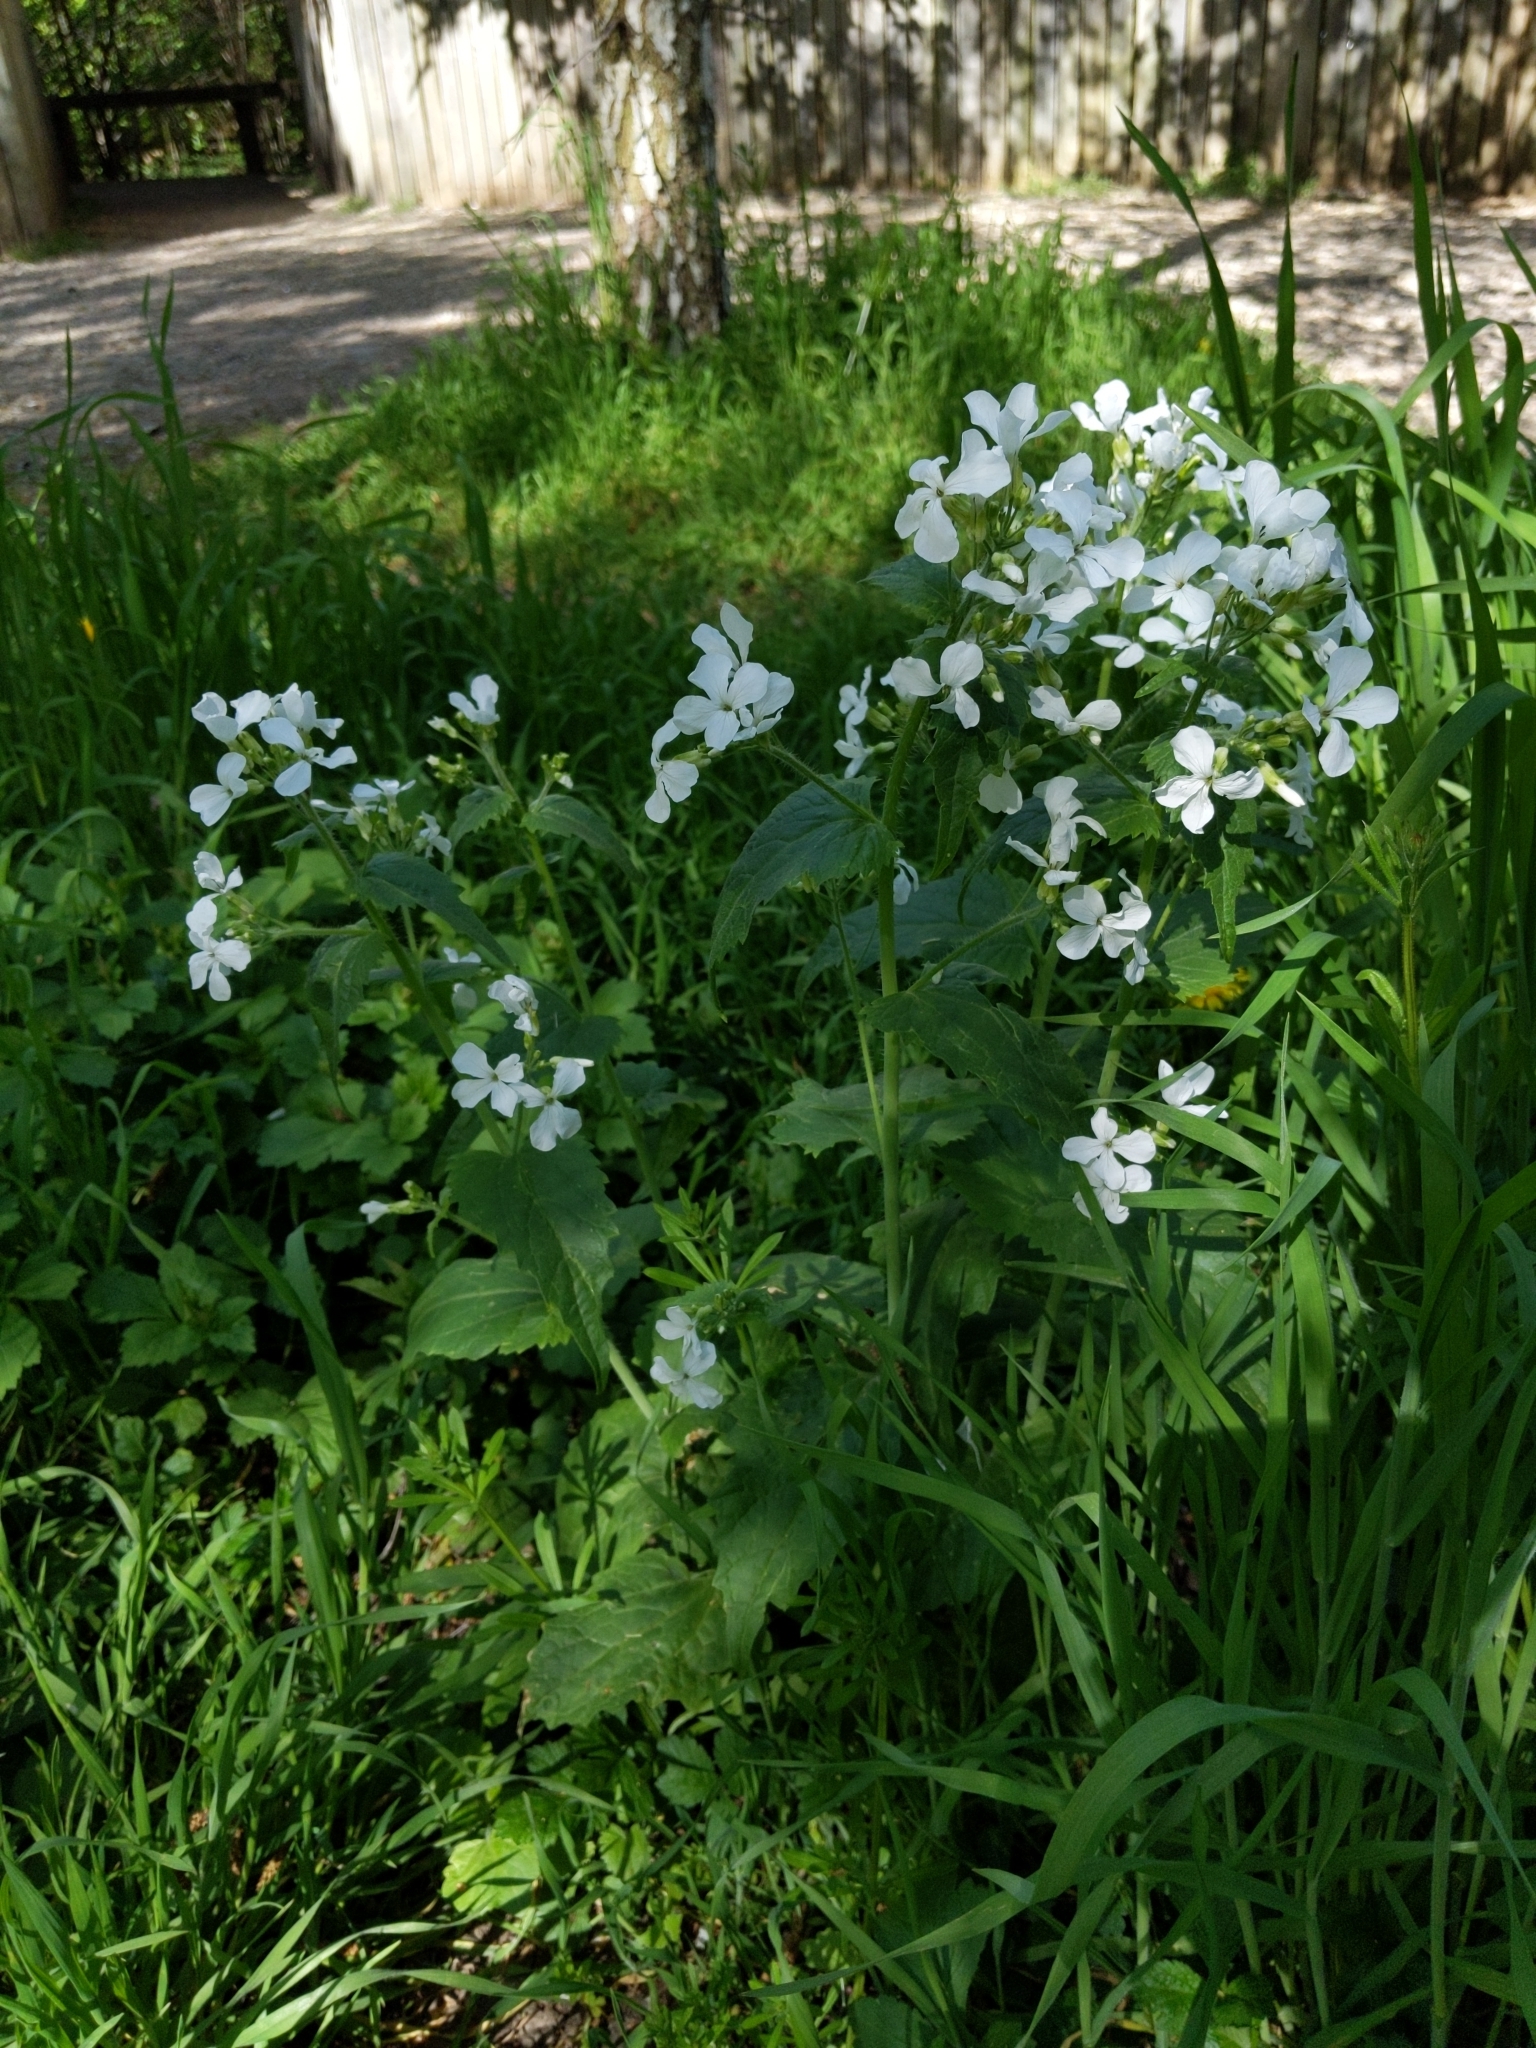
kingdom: Plantae
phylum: Tracheophyta
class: Magnoliopsida
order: Brassicales
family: Brassicaceae
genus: Lunaria
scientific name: Lunaria annua
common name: Honesty
